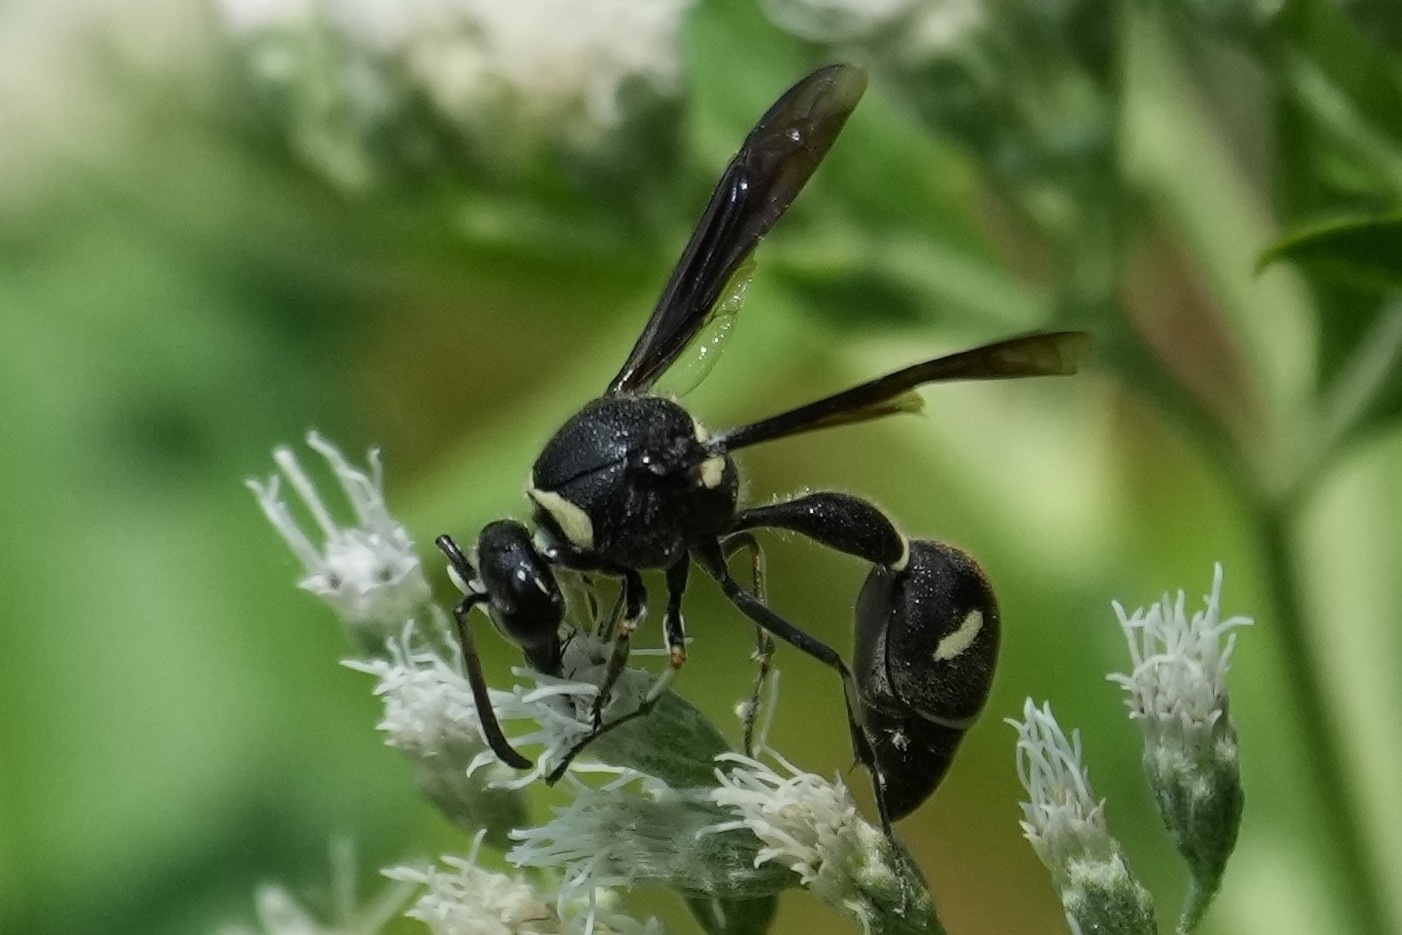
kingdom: Animalia
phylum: Arthropoda
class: Insecta
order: Hymenoptera
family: Vespidae
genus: Eumenes
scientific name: Eumenes fraternus
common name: Fraternal potter wasp
